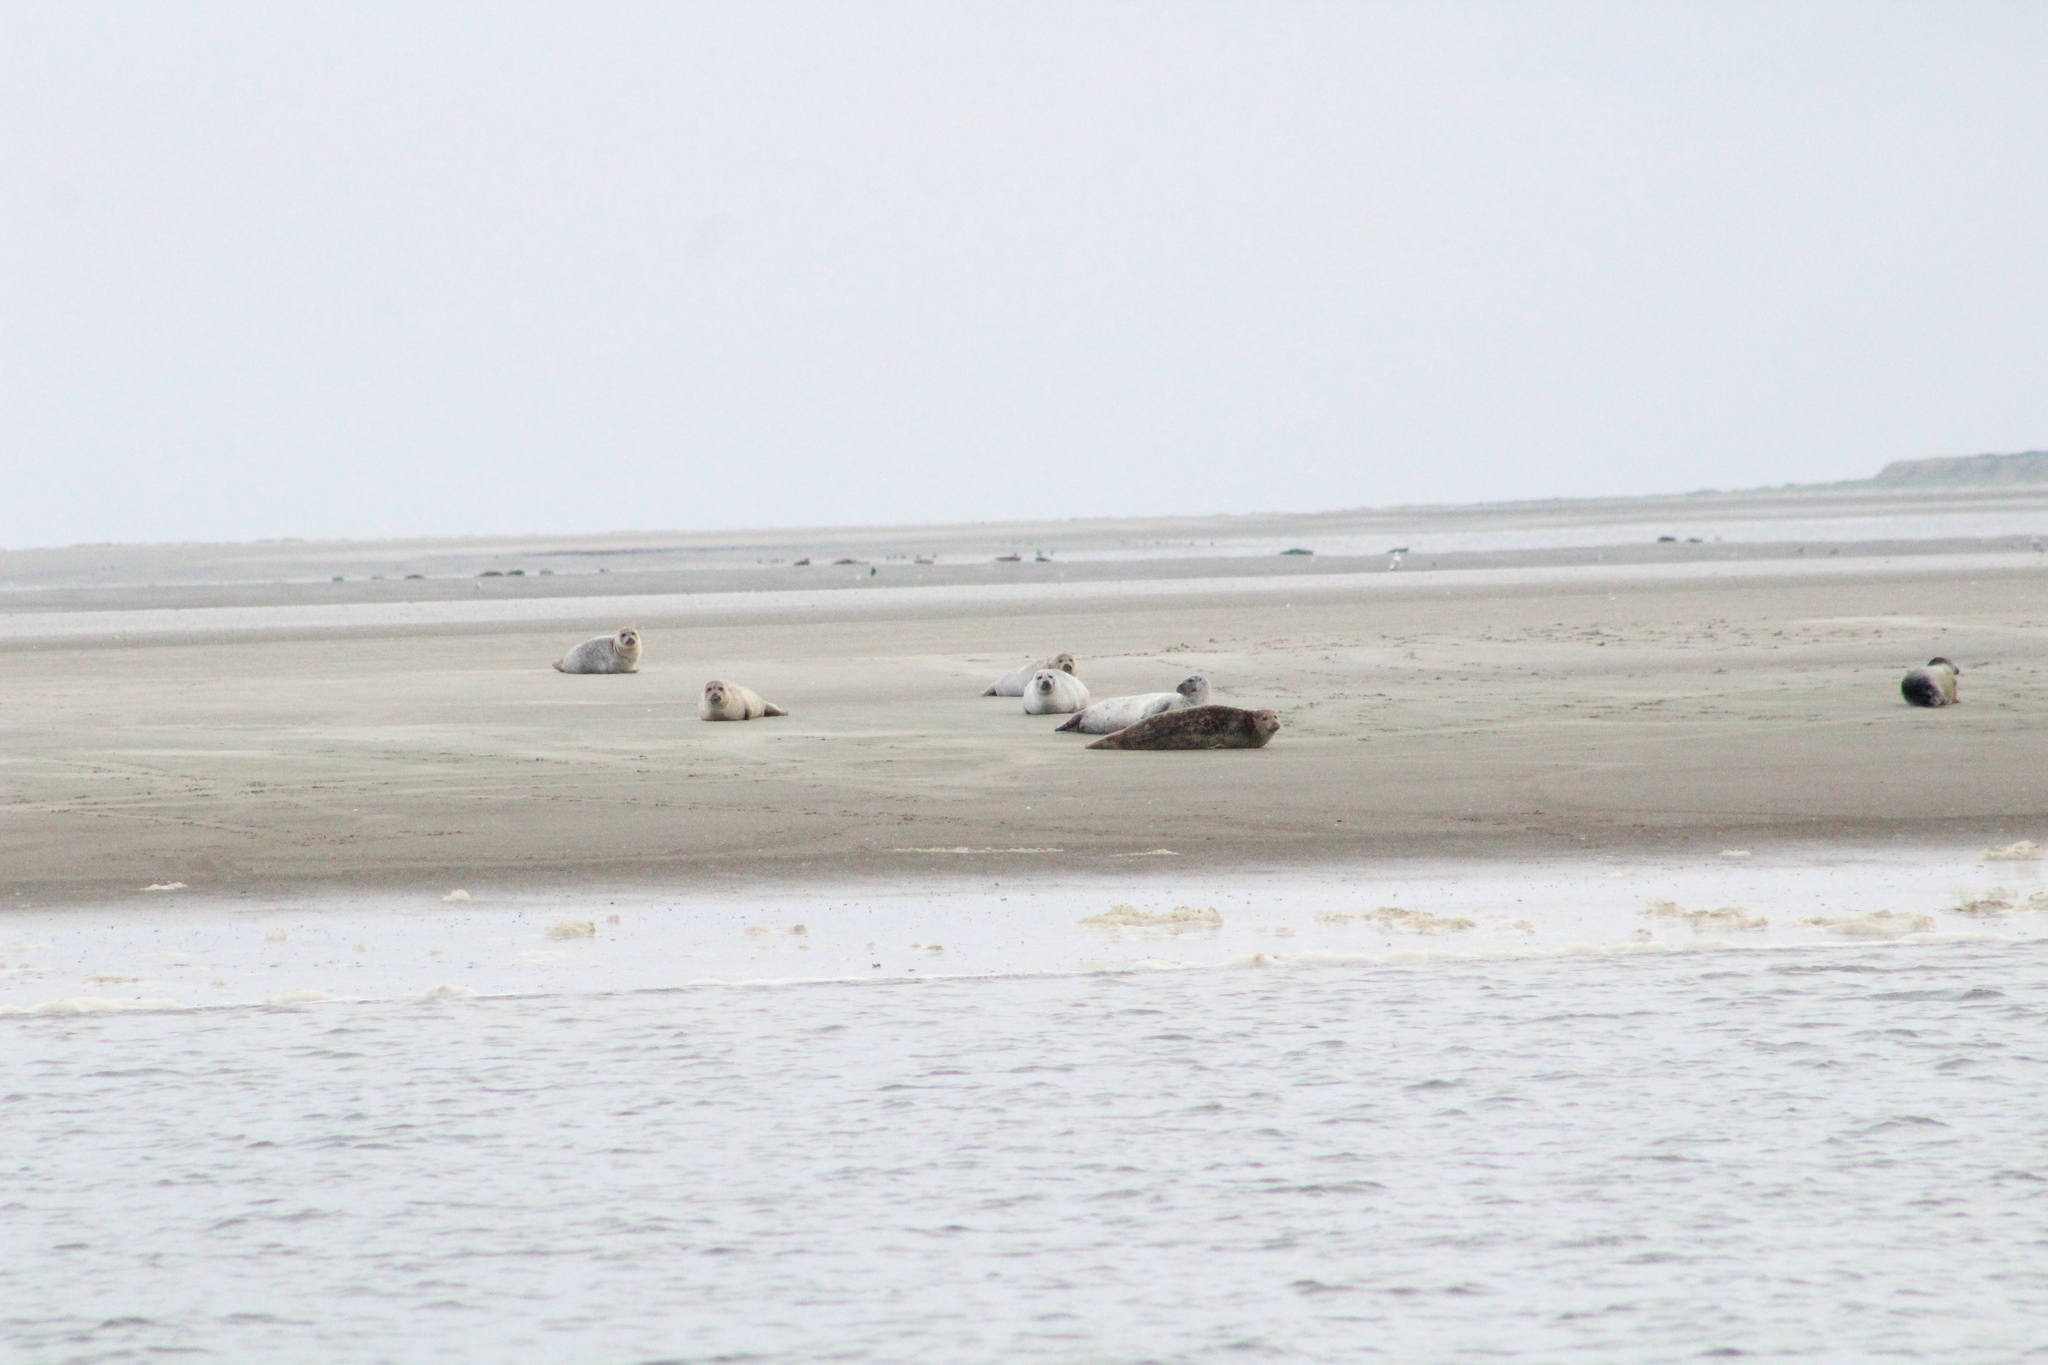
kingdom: Animalia
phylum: Chordata
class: Mammalia
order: Carnivora
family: Phocidae
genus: Phoca
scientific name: Phoca vitulina
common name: Harbor seal
